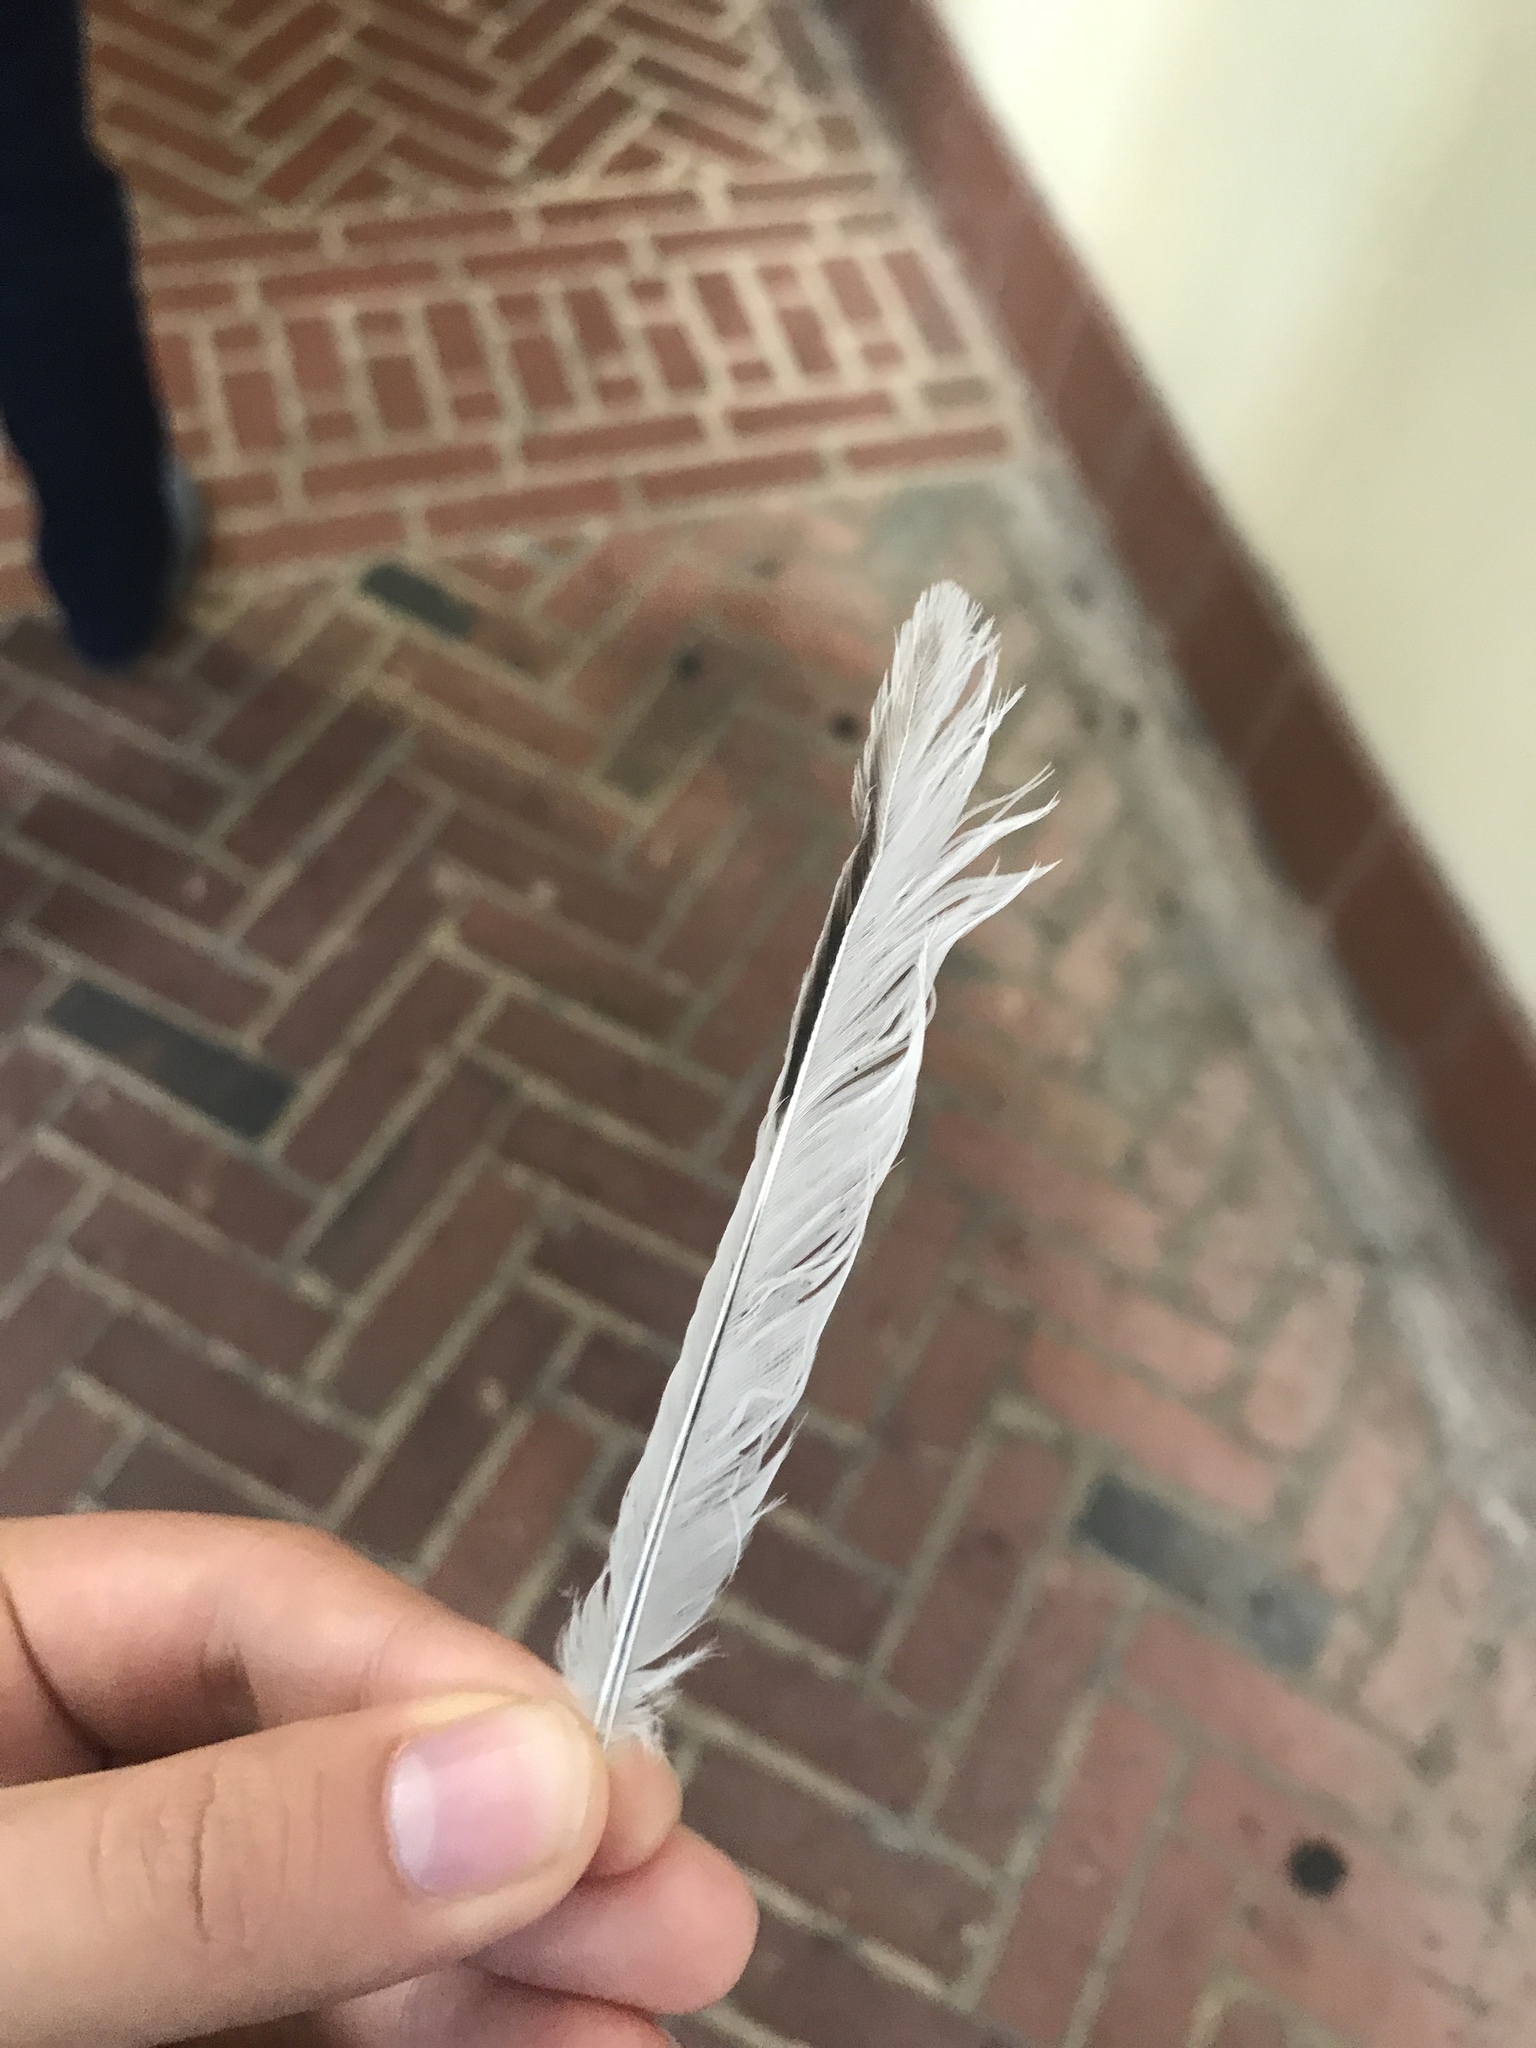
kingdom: Animalia
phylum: Chordata
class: Aves
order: Passeriformes
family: Mimidae
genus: Mimus
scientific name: Mimus polyglottos
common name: Northern mockingbird
